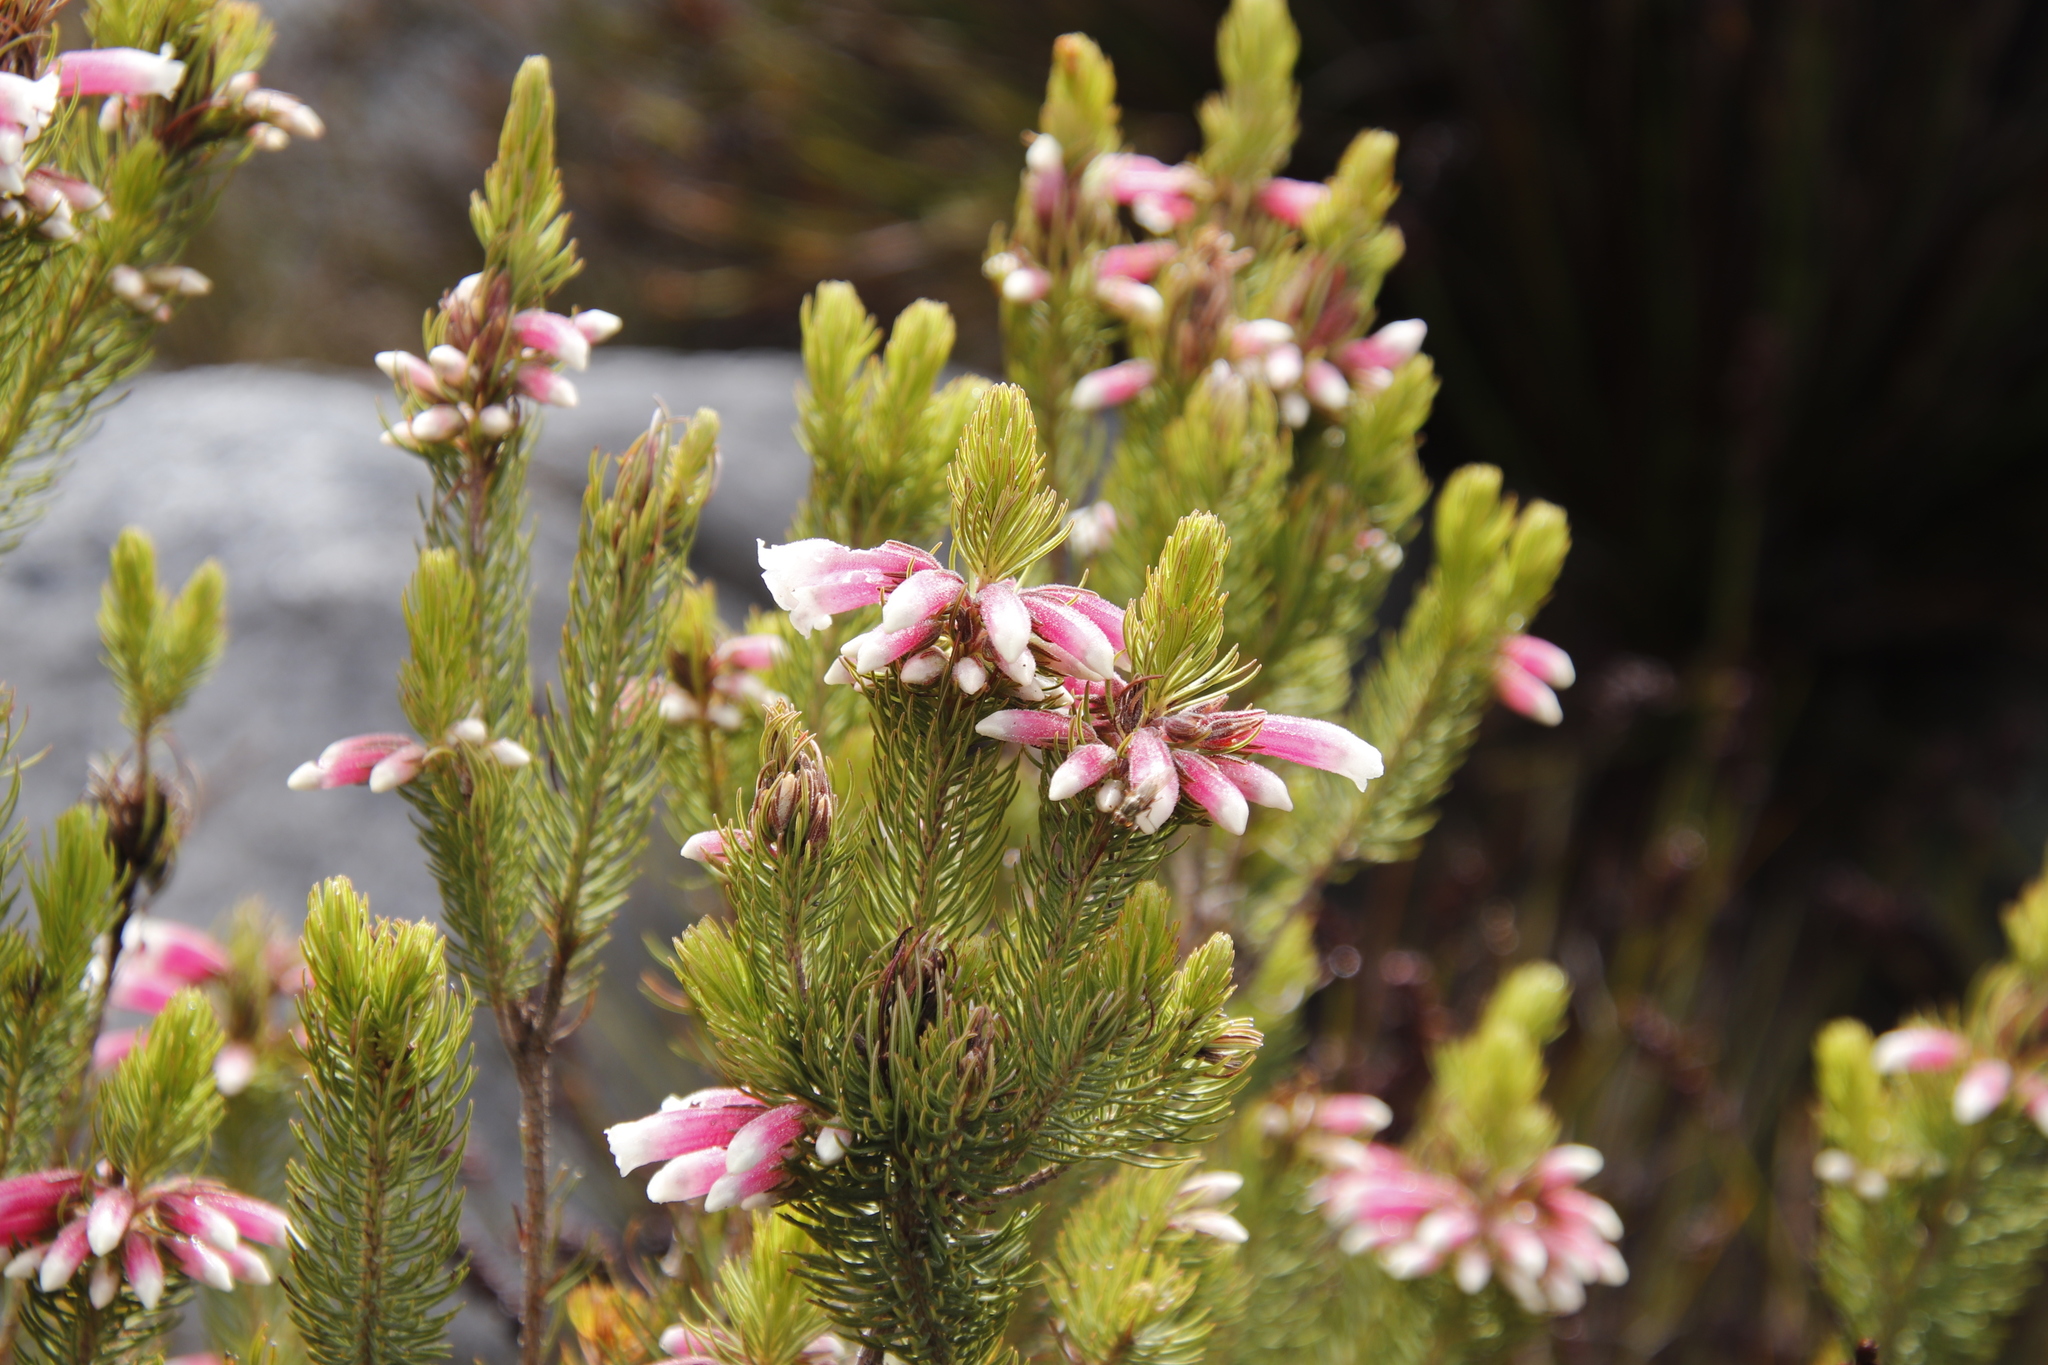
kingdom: Plantae
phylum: Tracheophyta
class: Magnoliopsida
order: Ericales
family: Ericaceae
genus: Erica
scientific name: Erica viscaria
